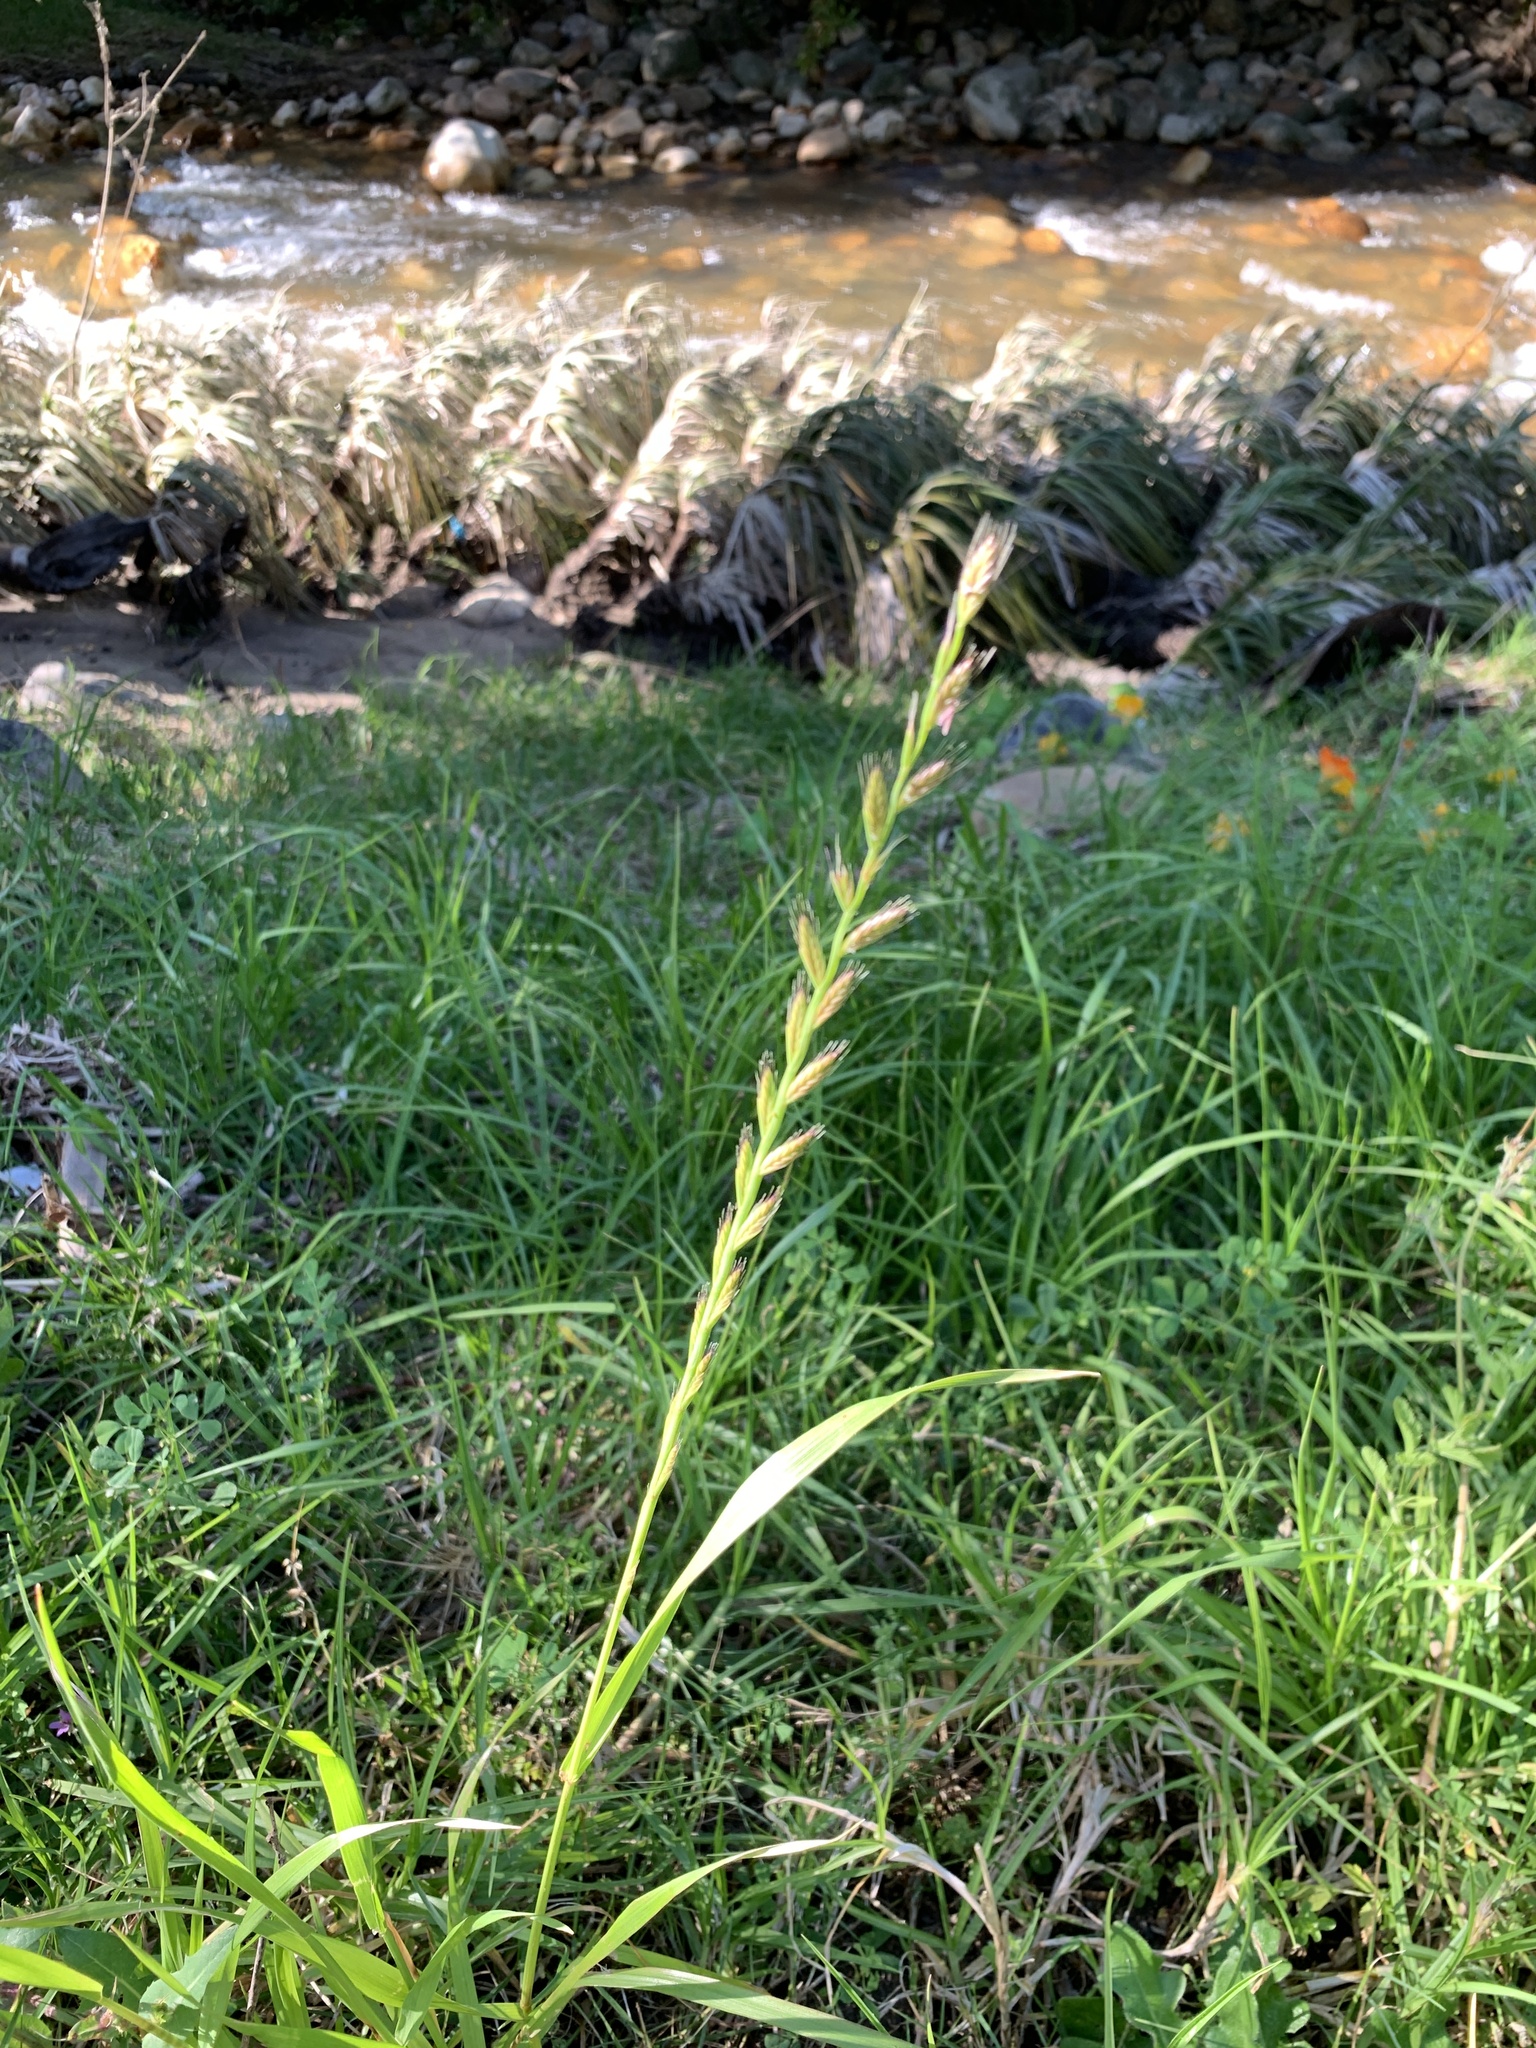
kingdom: Plantae
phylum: Tracheophyta
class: Liliopsida
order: Poales
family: Poaceae
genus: Lolium
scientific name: Lolium multiflorum
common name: Annual ryegrass
